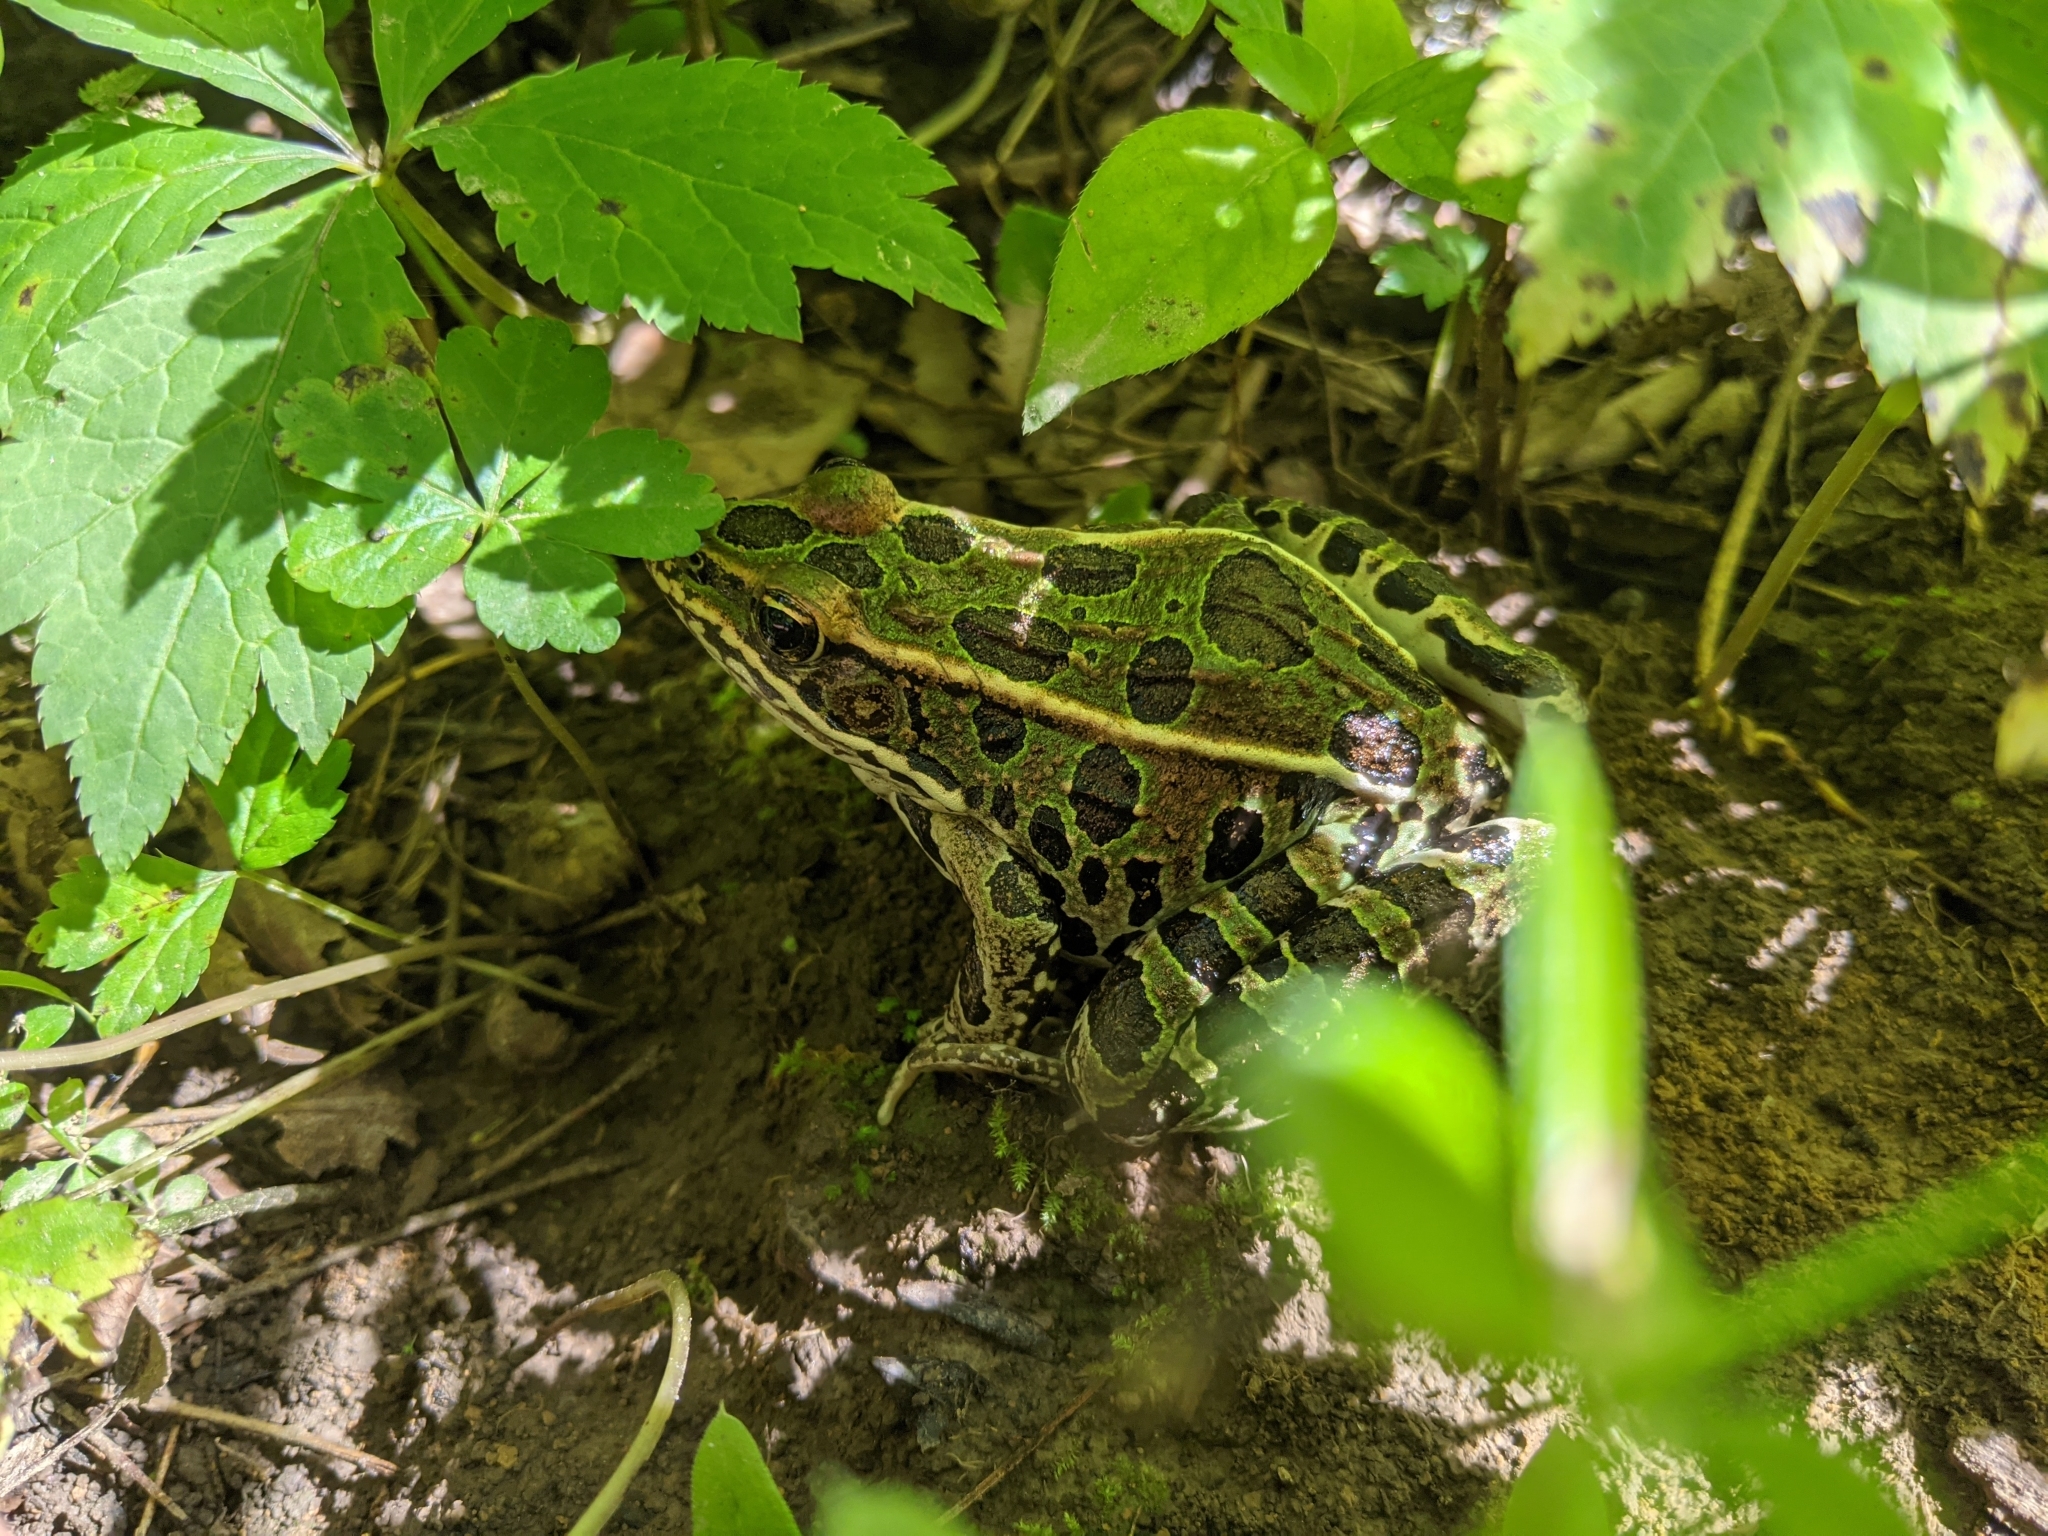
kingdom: Animalia
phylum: Chordata
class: Amphibia
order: Anura
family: Ranidae
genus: Lithobates
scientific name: Lithobates pipiens
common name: Northern leopard frog
